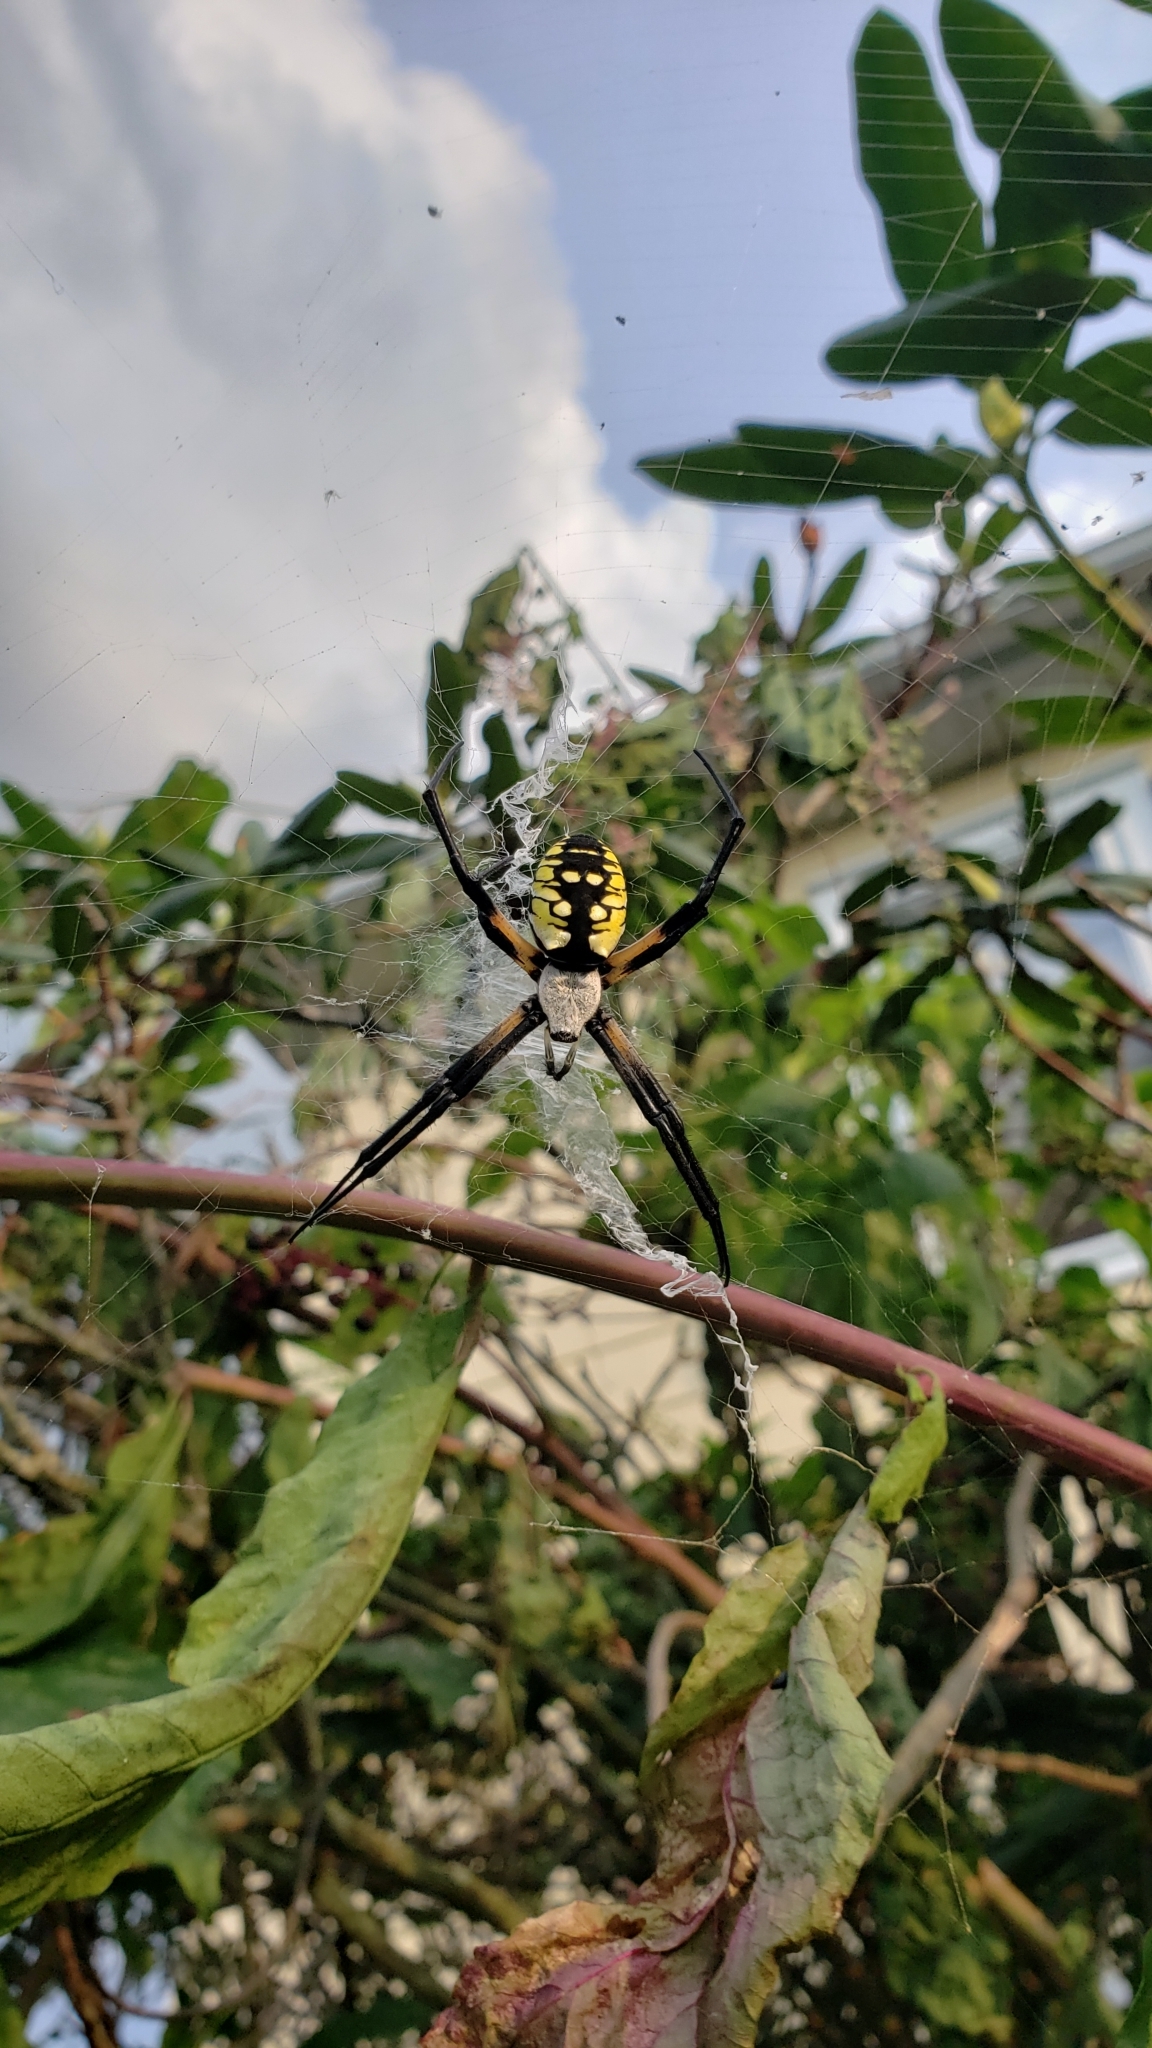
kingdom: Animalia
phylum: Arthropoda
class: Arachnida
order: Araneae
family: Araneidae
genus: Argiope
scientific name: Argiope aurantia
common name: Orb weavers
